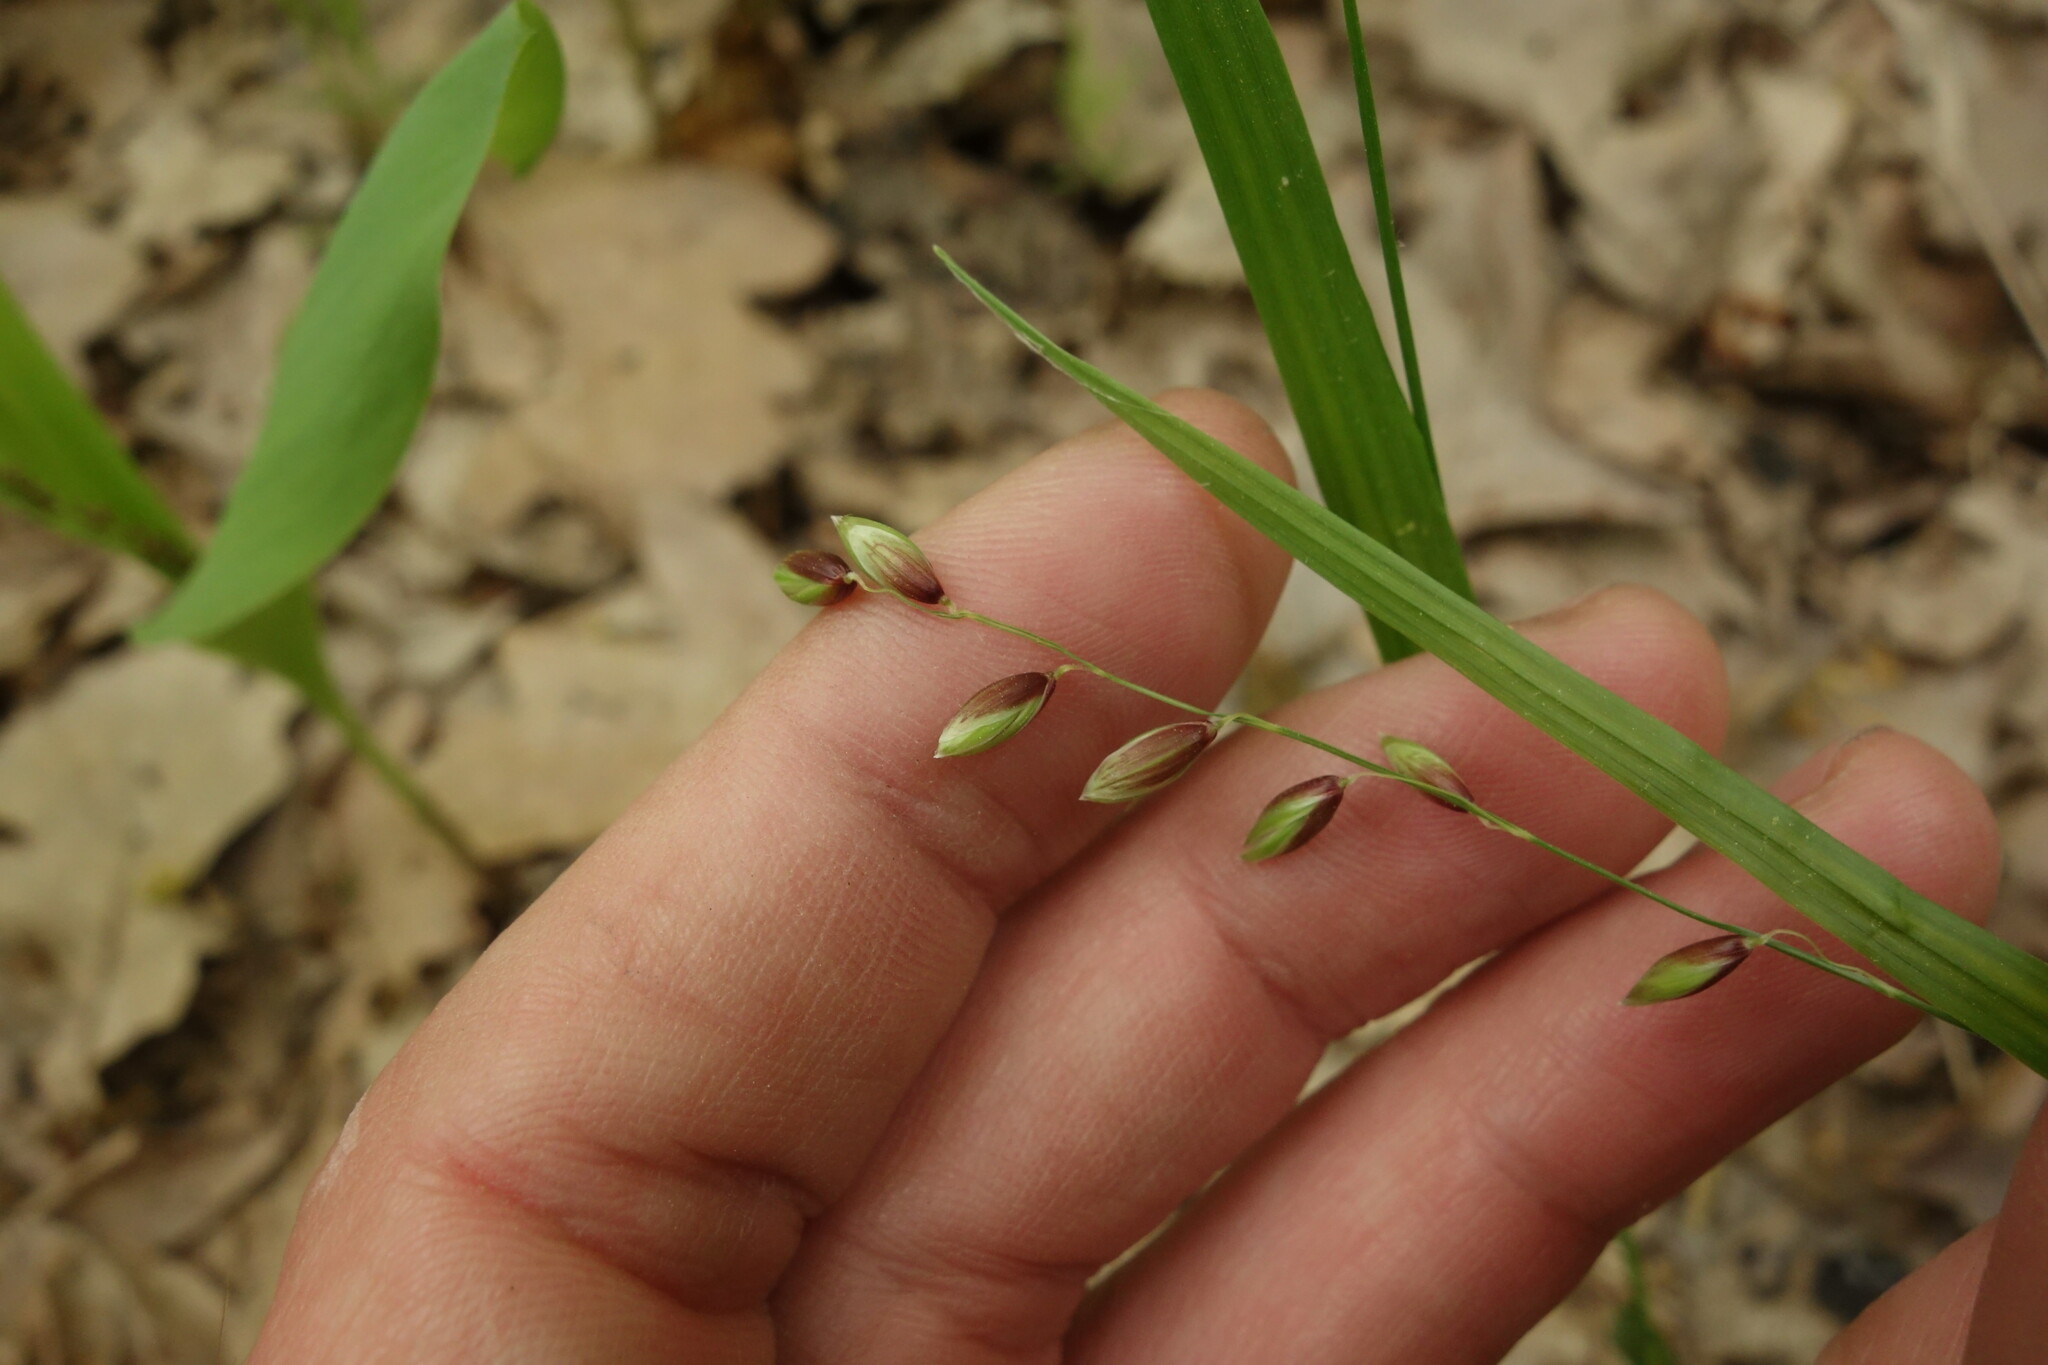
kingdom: Plantae
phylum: Tracheophyta
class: Liliopsida
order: Poales
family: Poaceae
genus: Melica
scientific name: Melica nutans
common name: Mountain melick
